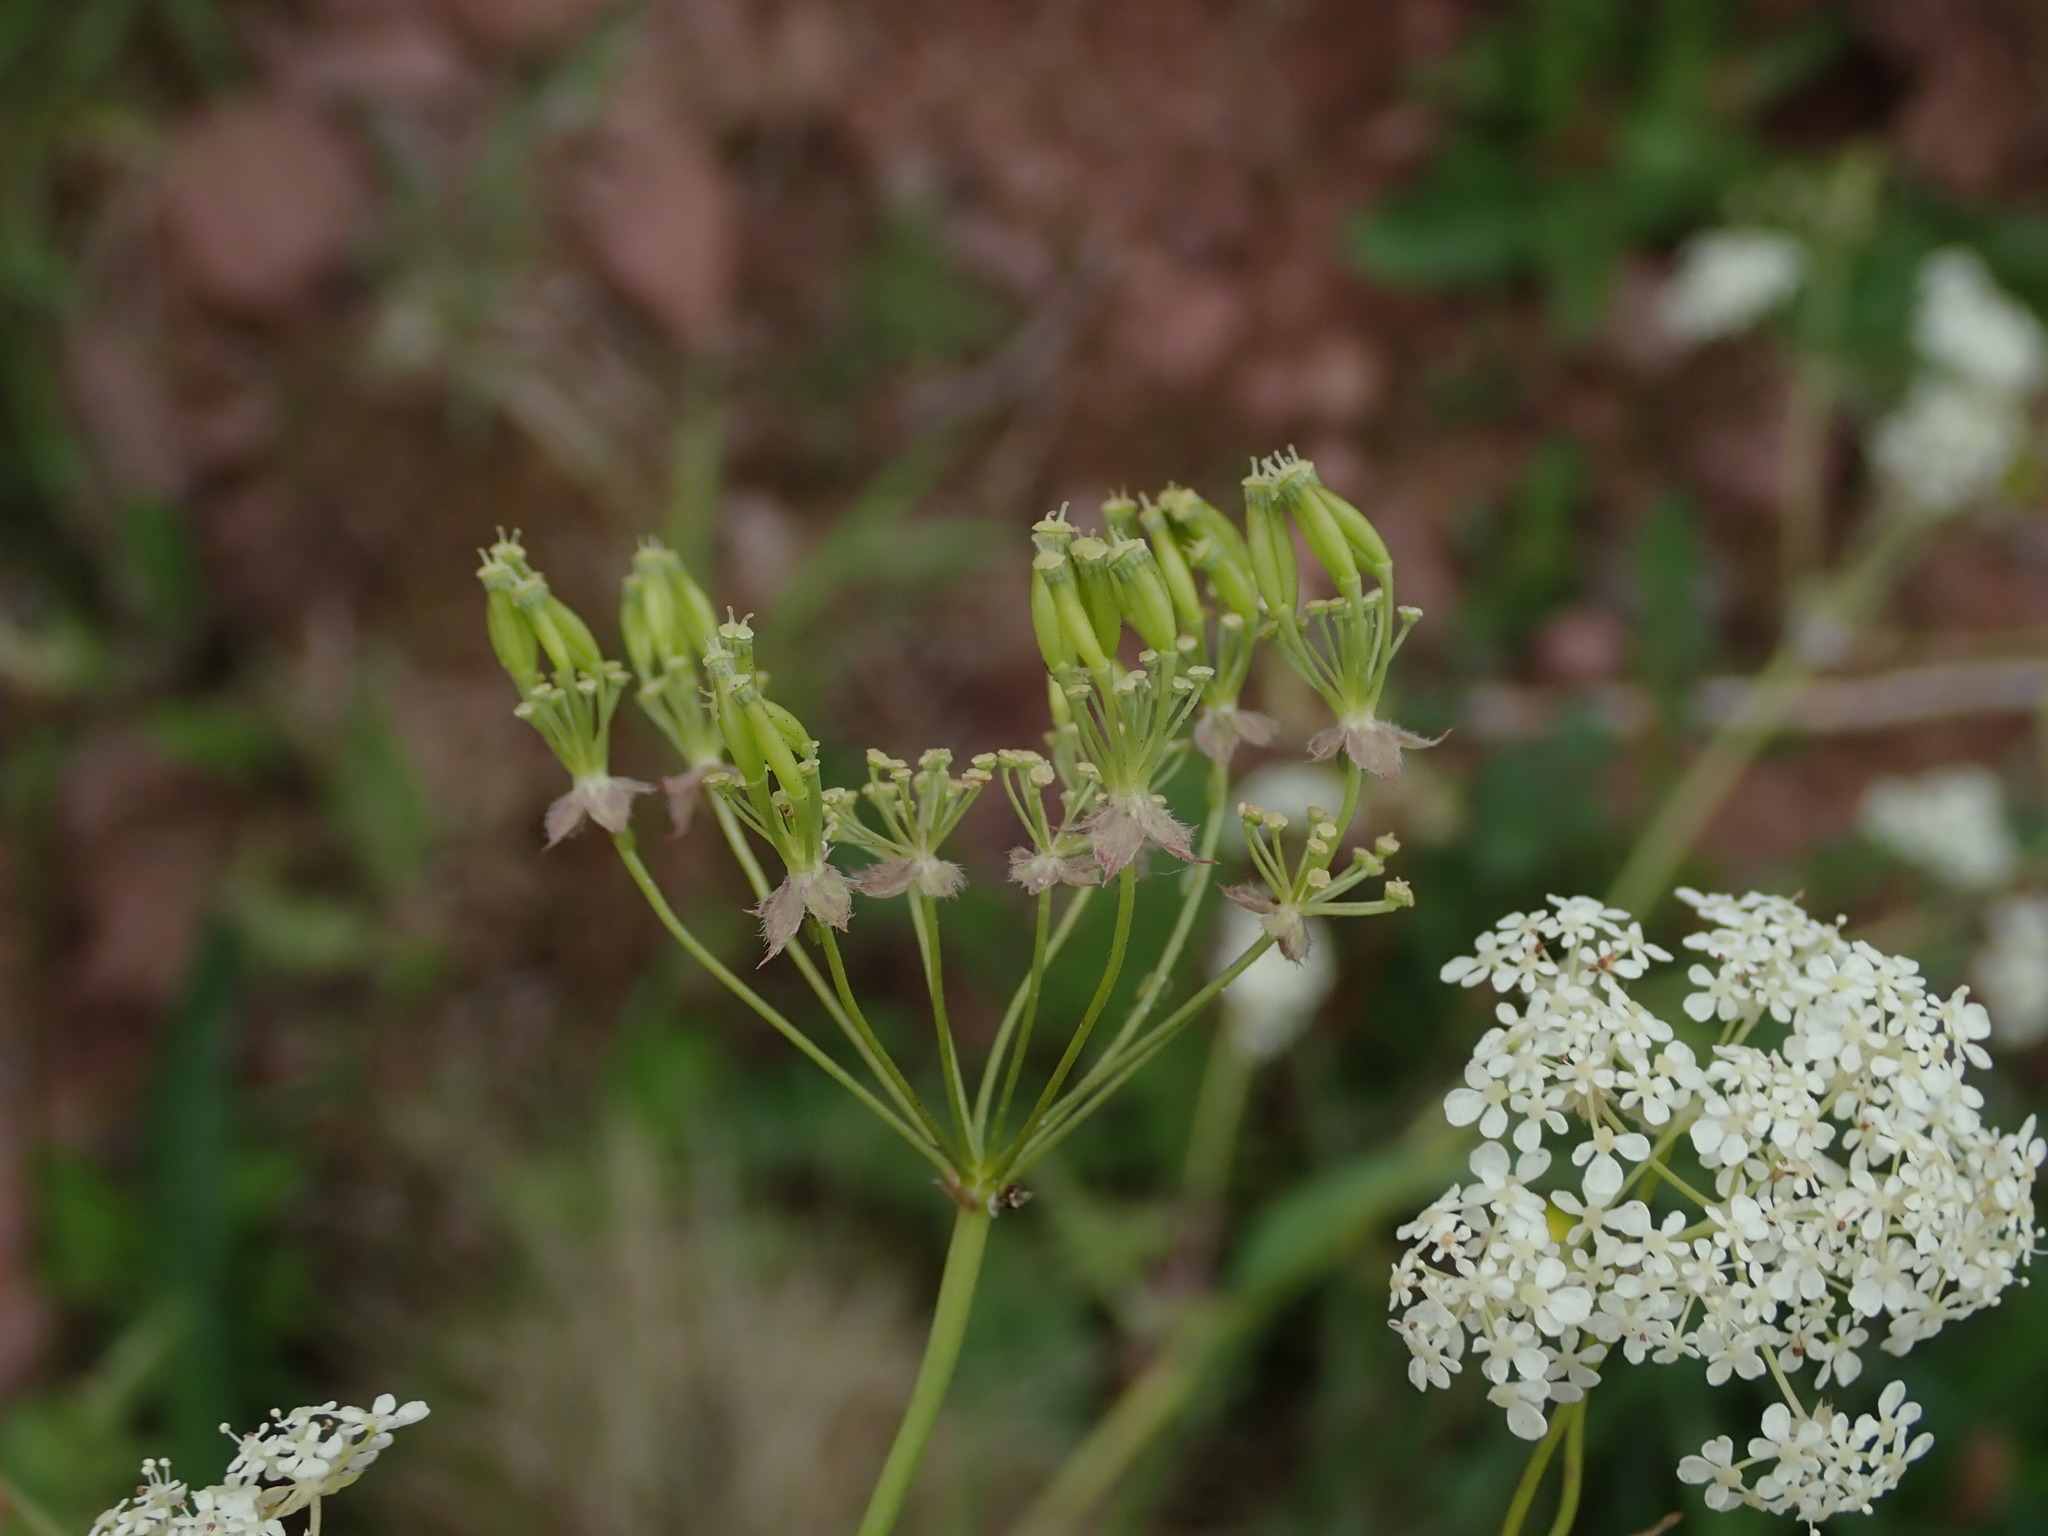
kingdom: Plantae
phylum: Tracheophyta
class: Magnoliopsida
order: Apiales
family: Apiaceae
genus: Anthriscus
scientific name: Anthriscus sylvestris
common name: Cow parsley
